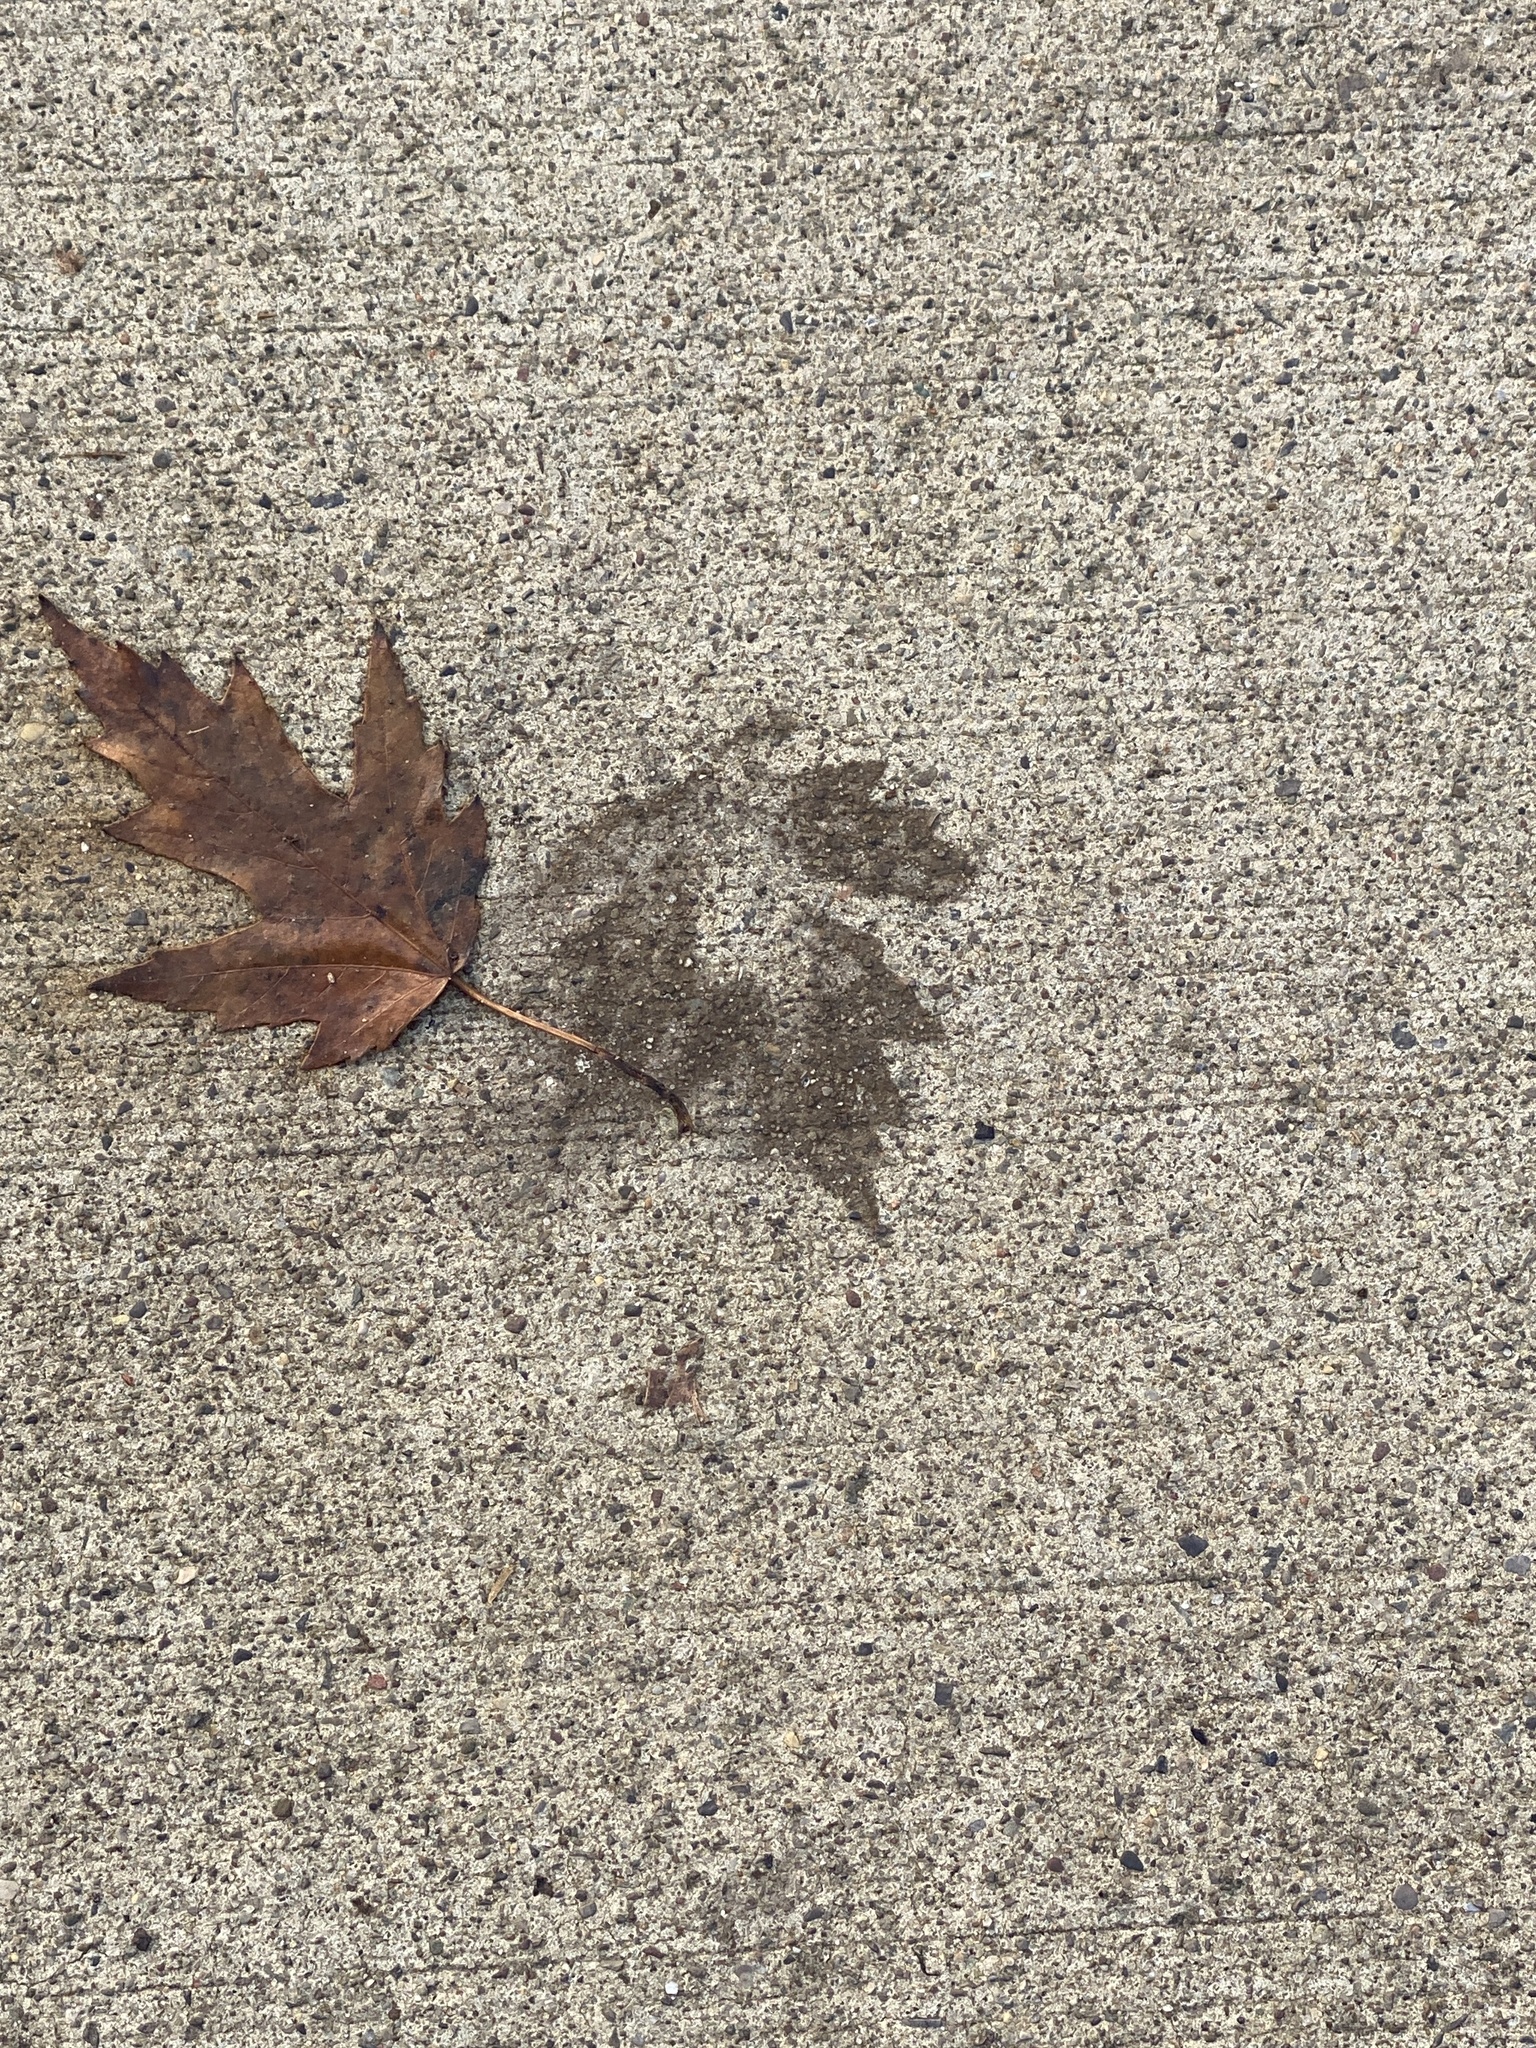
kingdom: Plantae
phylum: Tracheophyta
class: Magnoliopsida
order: Sapindales
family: Sapindaceae
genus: Acer
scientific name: Acer saccharinum
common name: Silver maple
